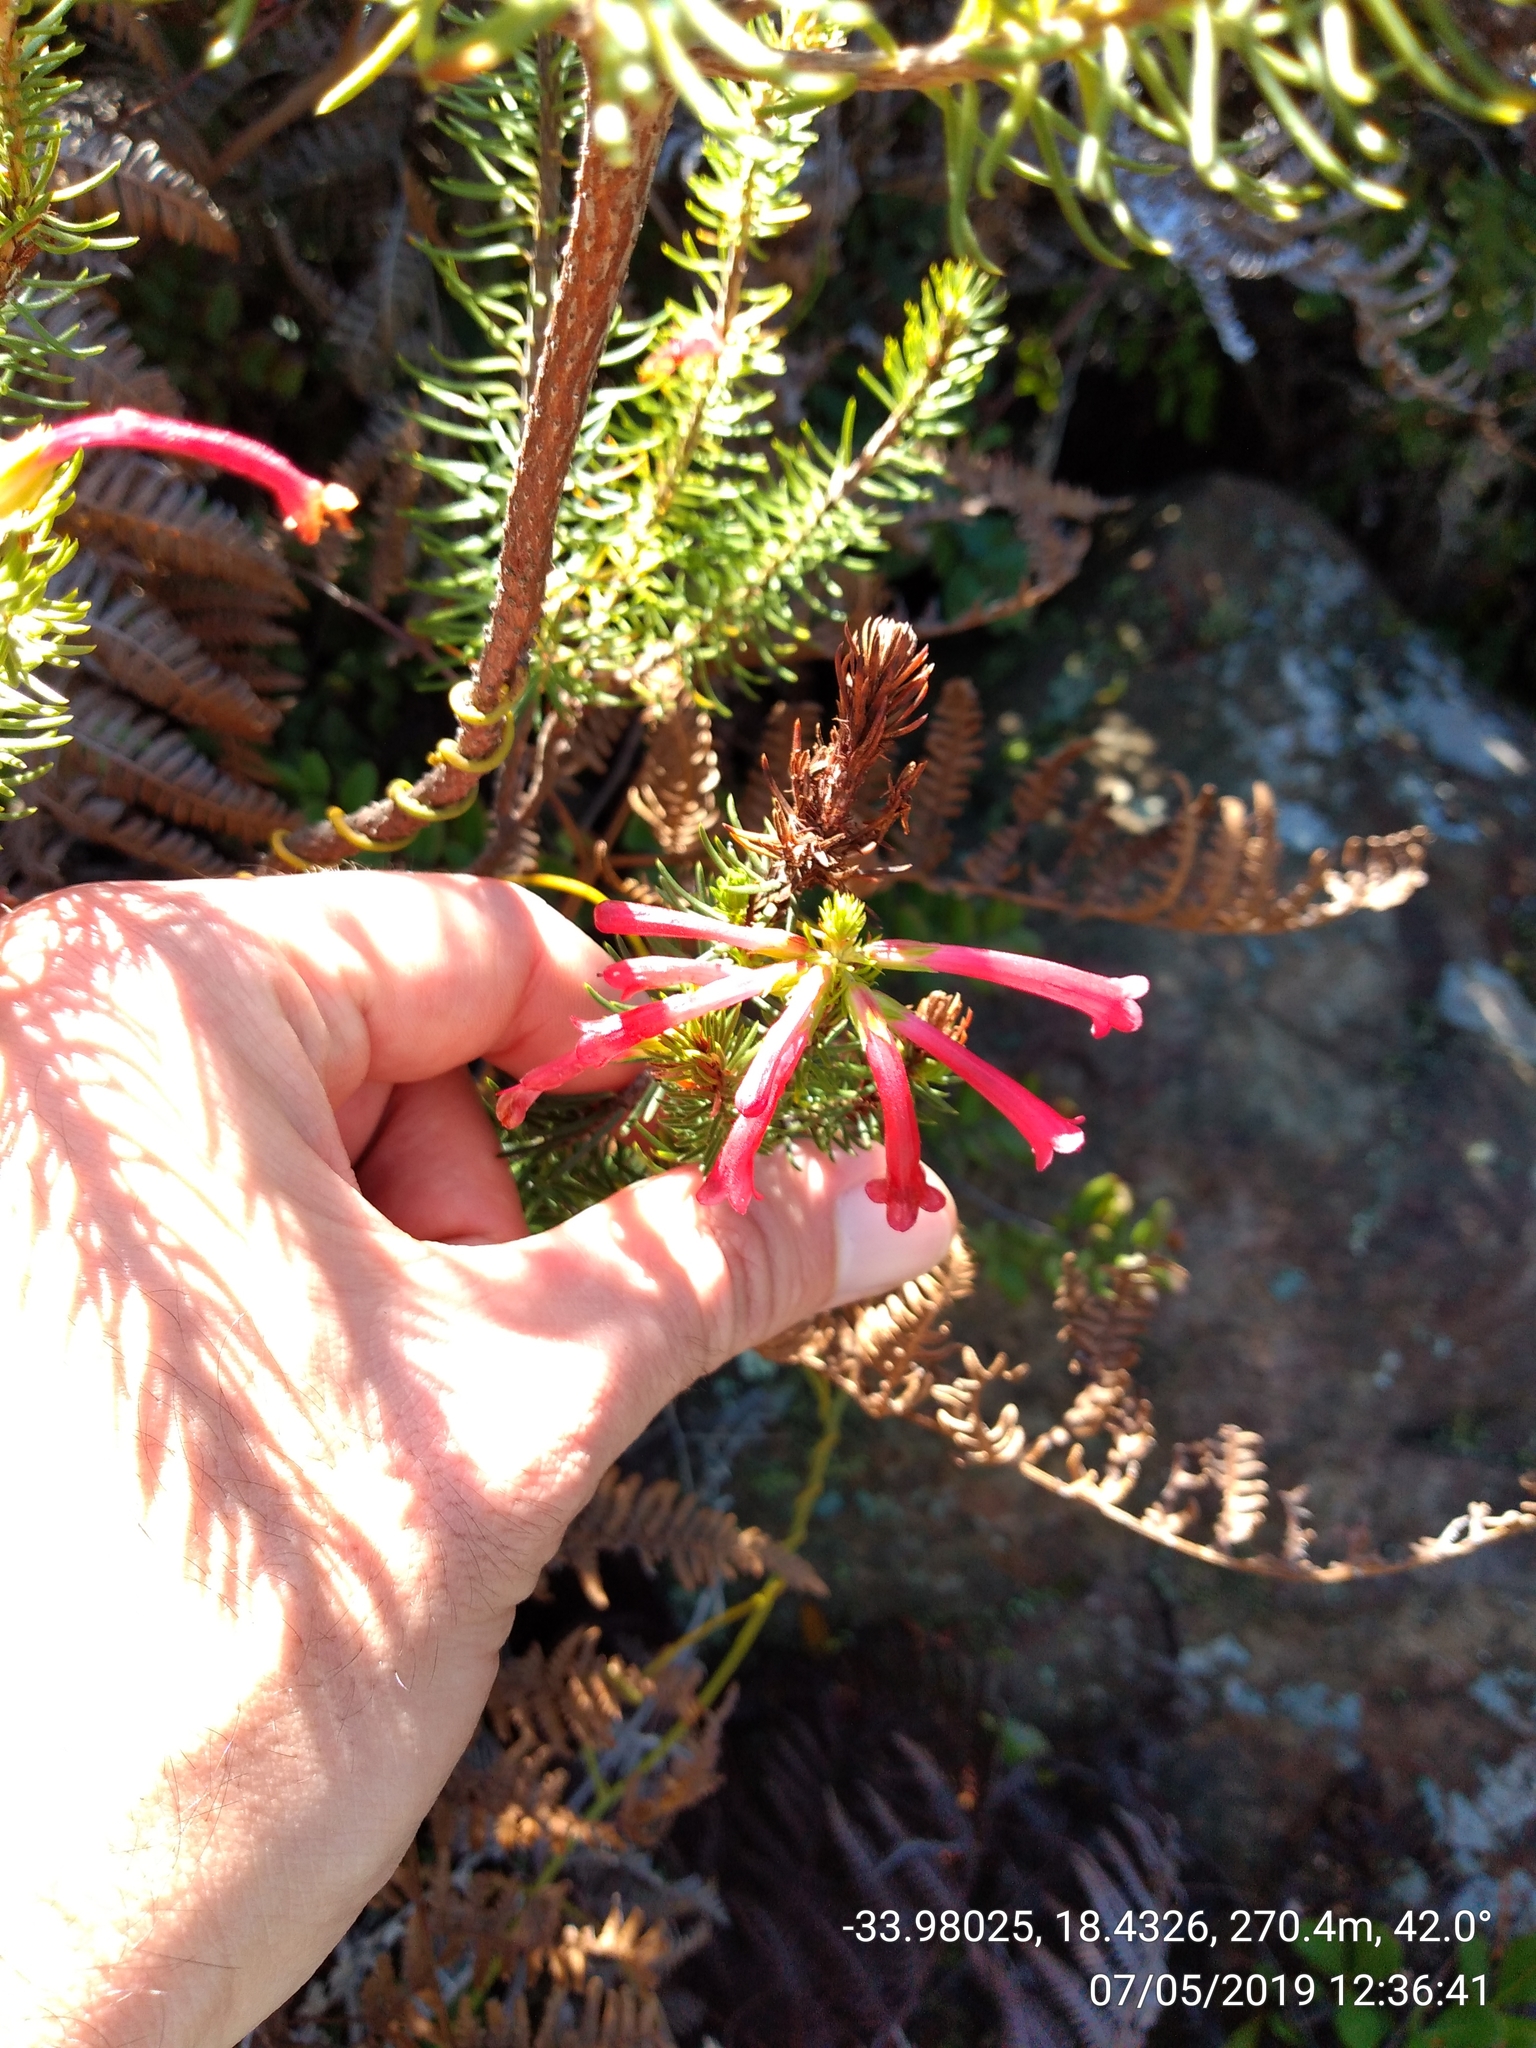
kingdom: Plantae
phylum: Tracheophyta
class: Magnoliopsida
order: Ericales
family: Ericaceae
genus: Erica
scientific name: Erica abietina
